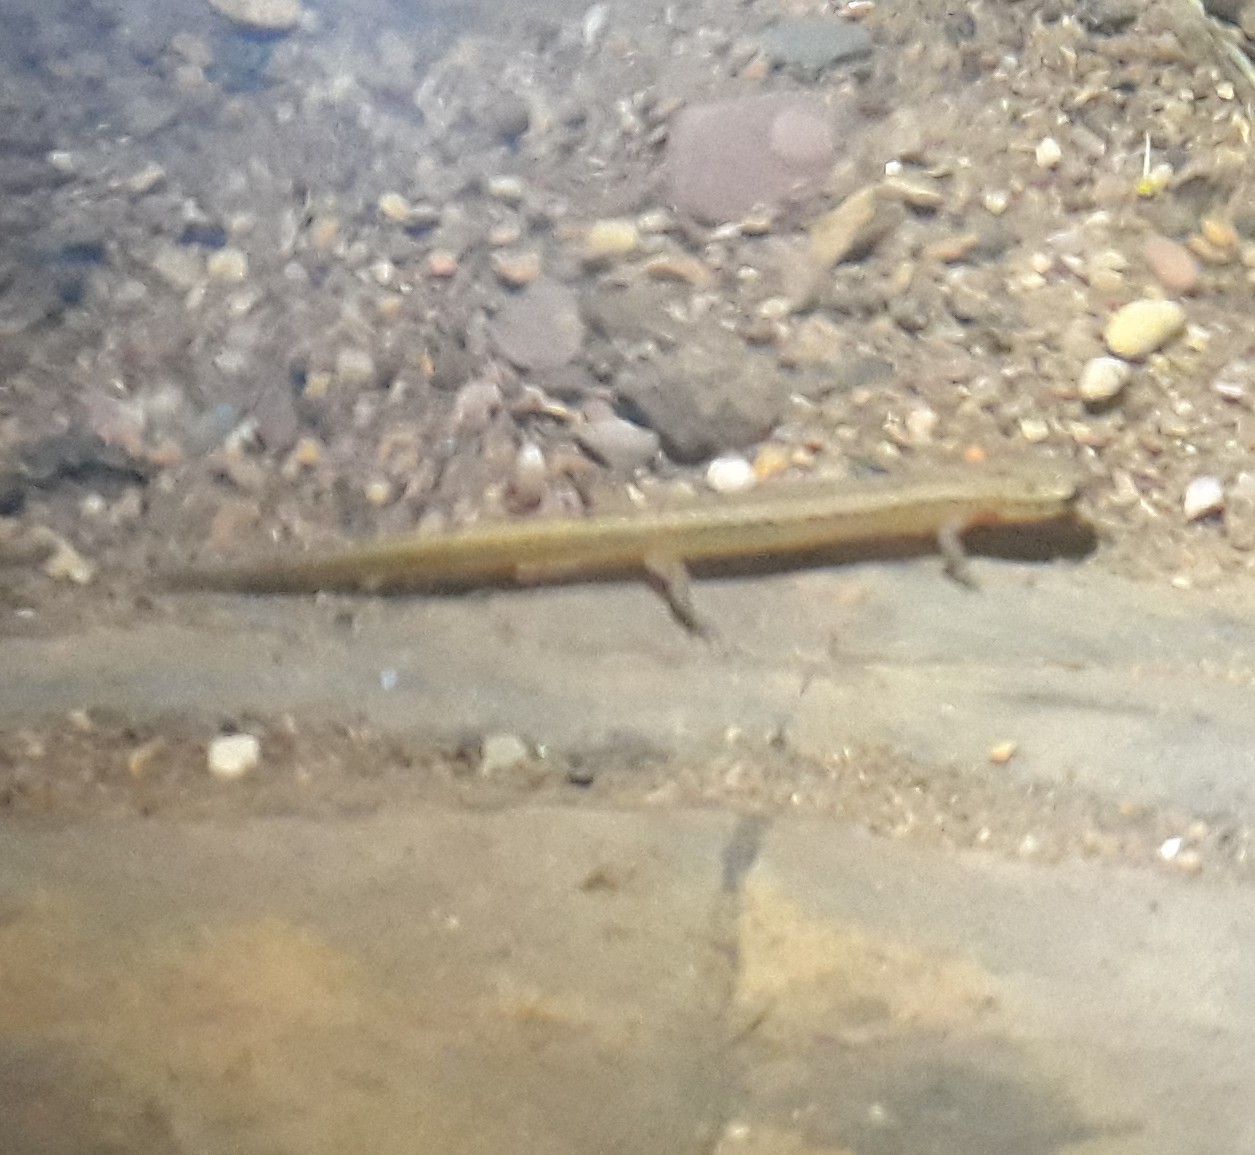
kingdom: Animalia
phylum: Chordata
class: Amphibia
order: Caudata
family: Plethodontidae
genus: Eurycea
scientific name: Eurycea cirrigera
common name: Southern two-lined salamander
